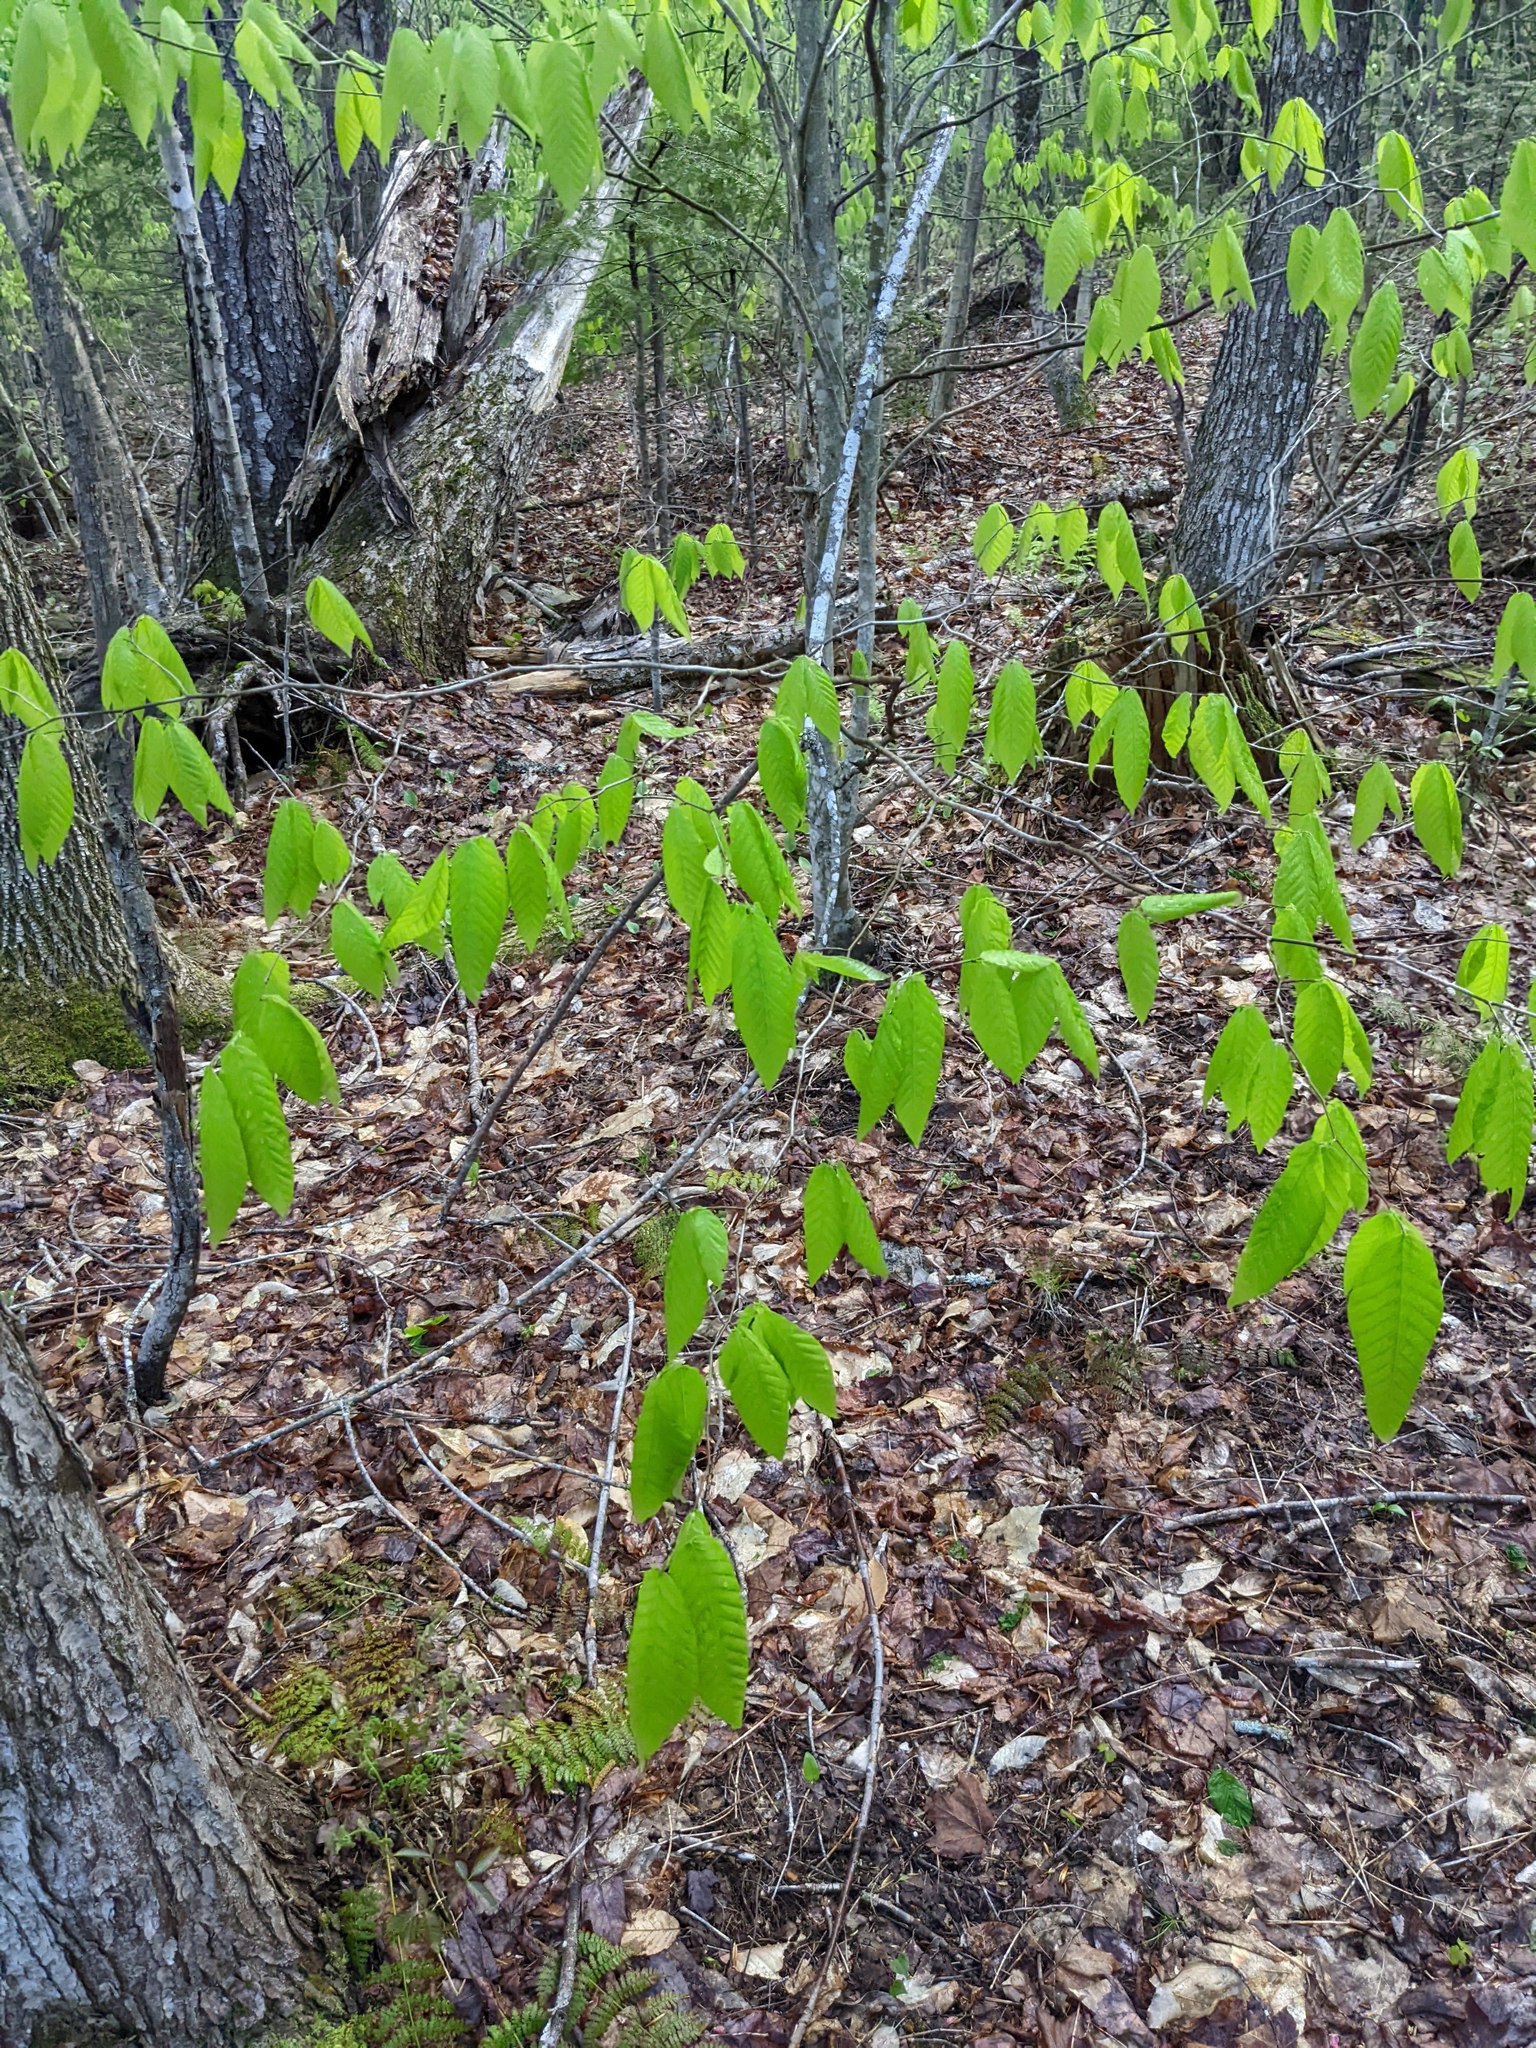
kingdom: Plantae
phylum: Tracheophyta
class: Magnoliopsida
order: Fagales
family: Fagaceae
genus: Fagus
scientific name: Fagus grandifolia
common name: American beech
